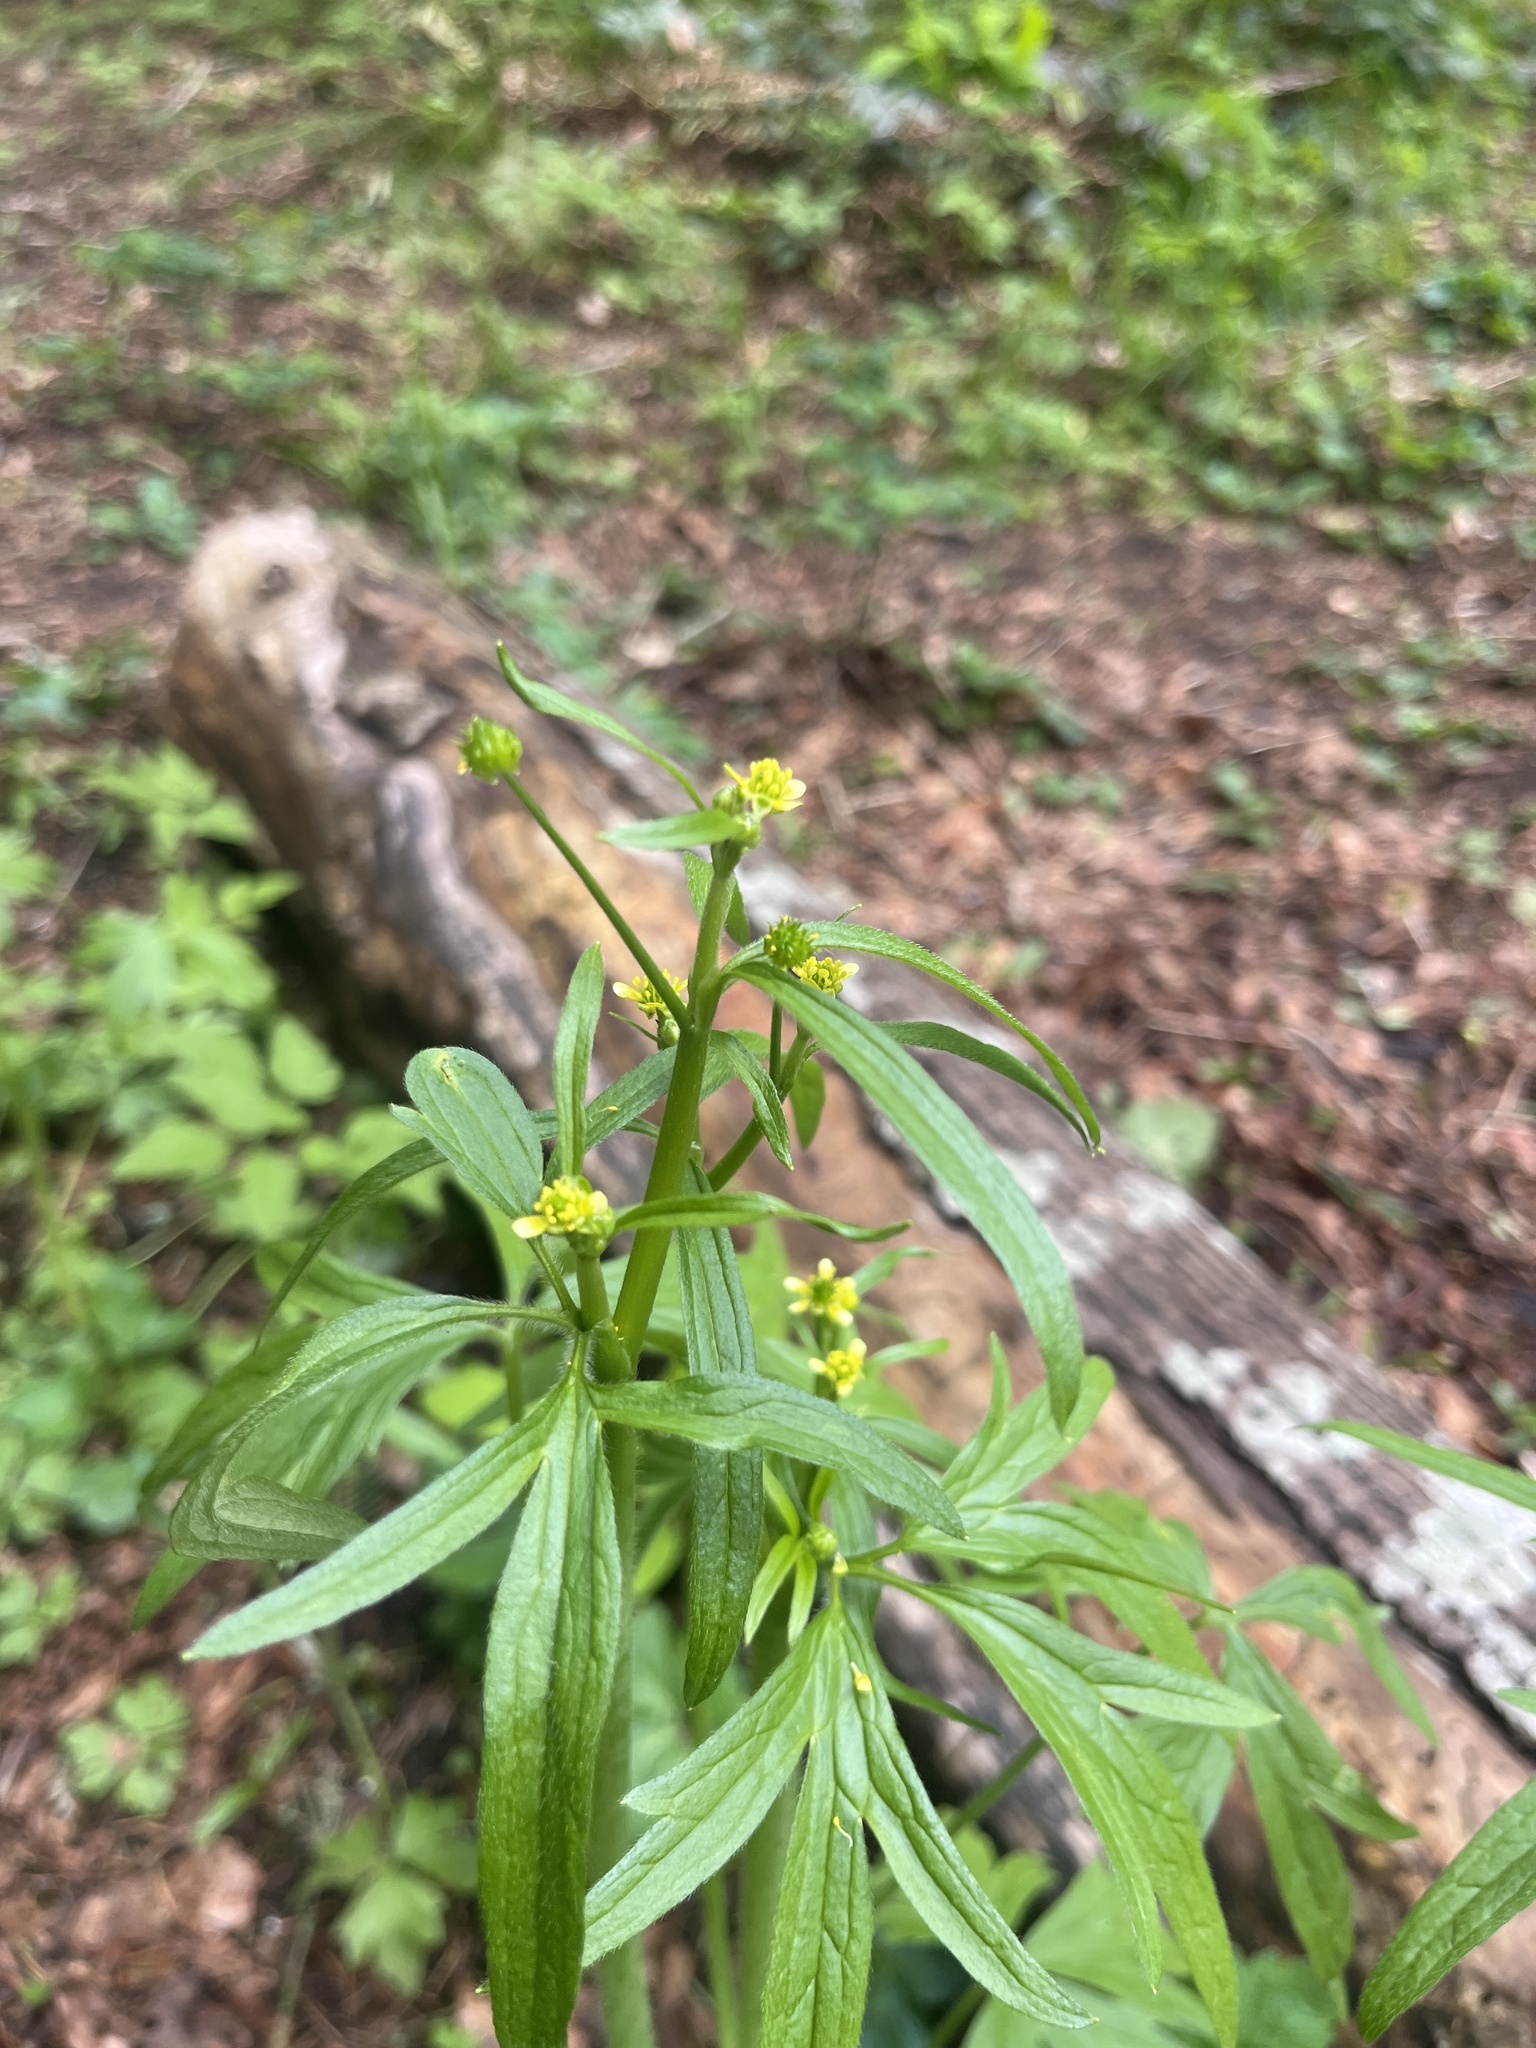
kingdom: Plantae
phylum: Tracheophyta
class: Magnoliopsida
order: Ranunculales
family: Ranunculaceae
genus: Ranunculus
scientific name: Ranunculus uncinatus
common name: Little buttercup
